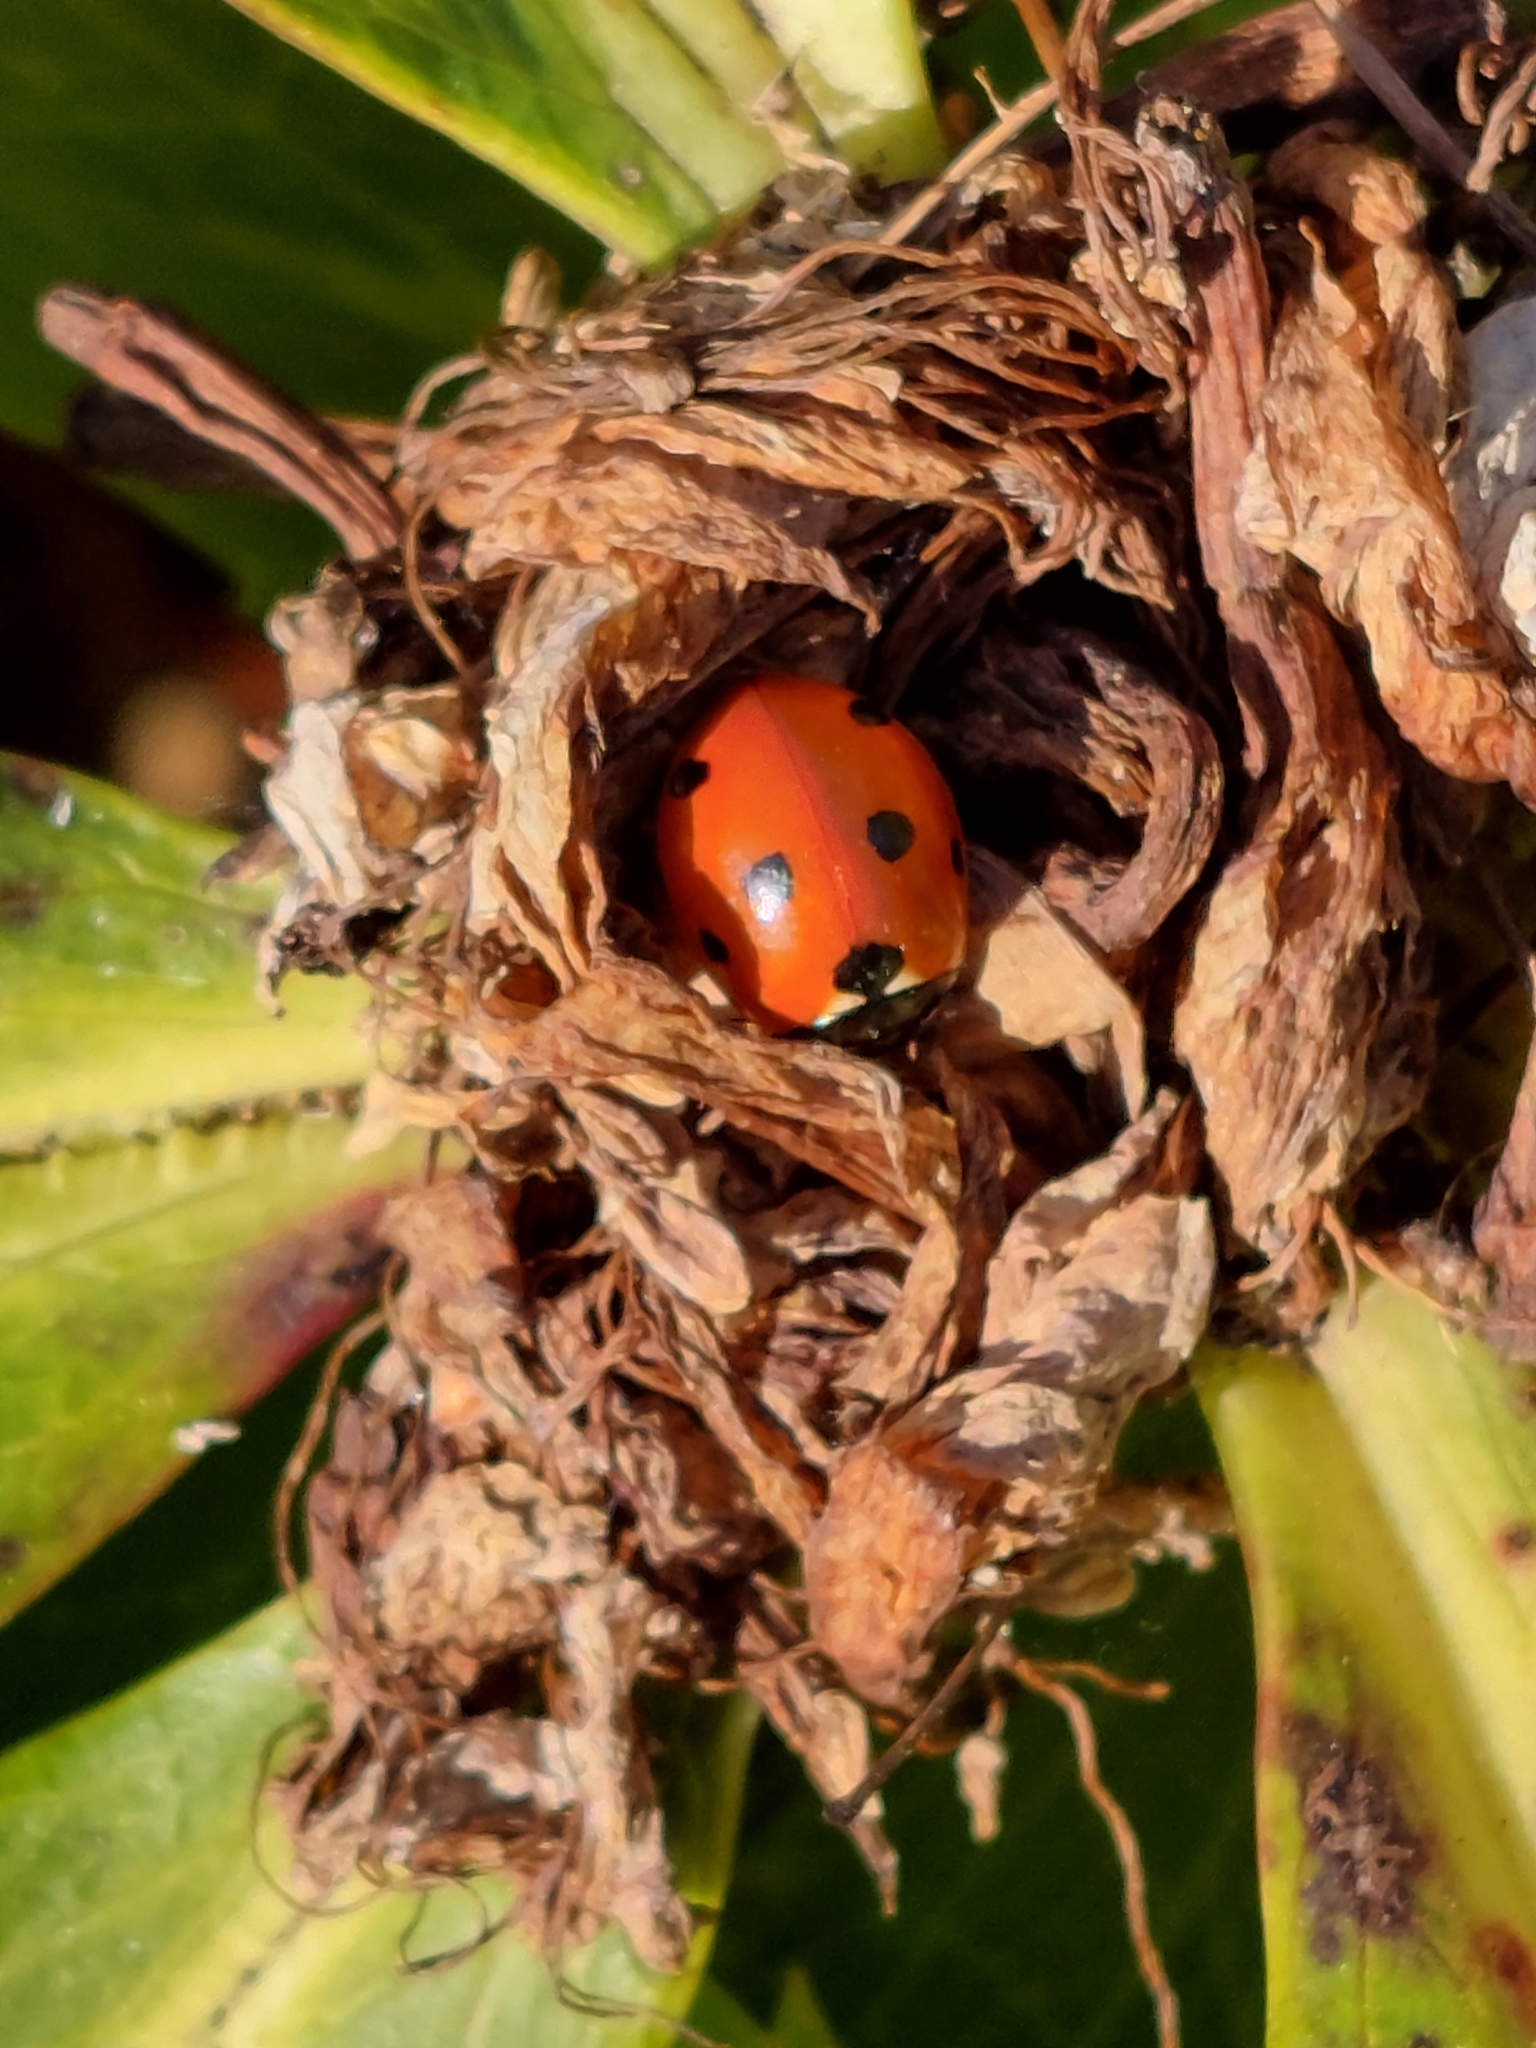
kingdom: Animalia
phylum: Arthropoda
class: Insecta
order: Coleoptera
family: Coccinellidae
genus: Coccinella
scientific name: Coccinella septempunctata
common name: Sevenspotted lady beetle
